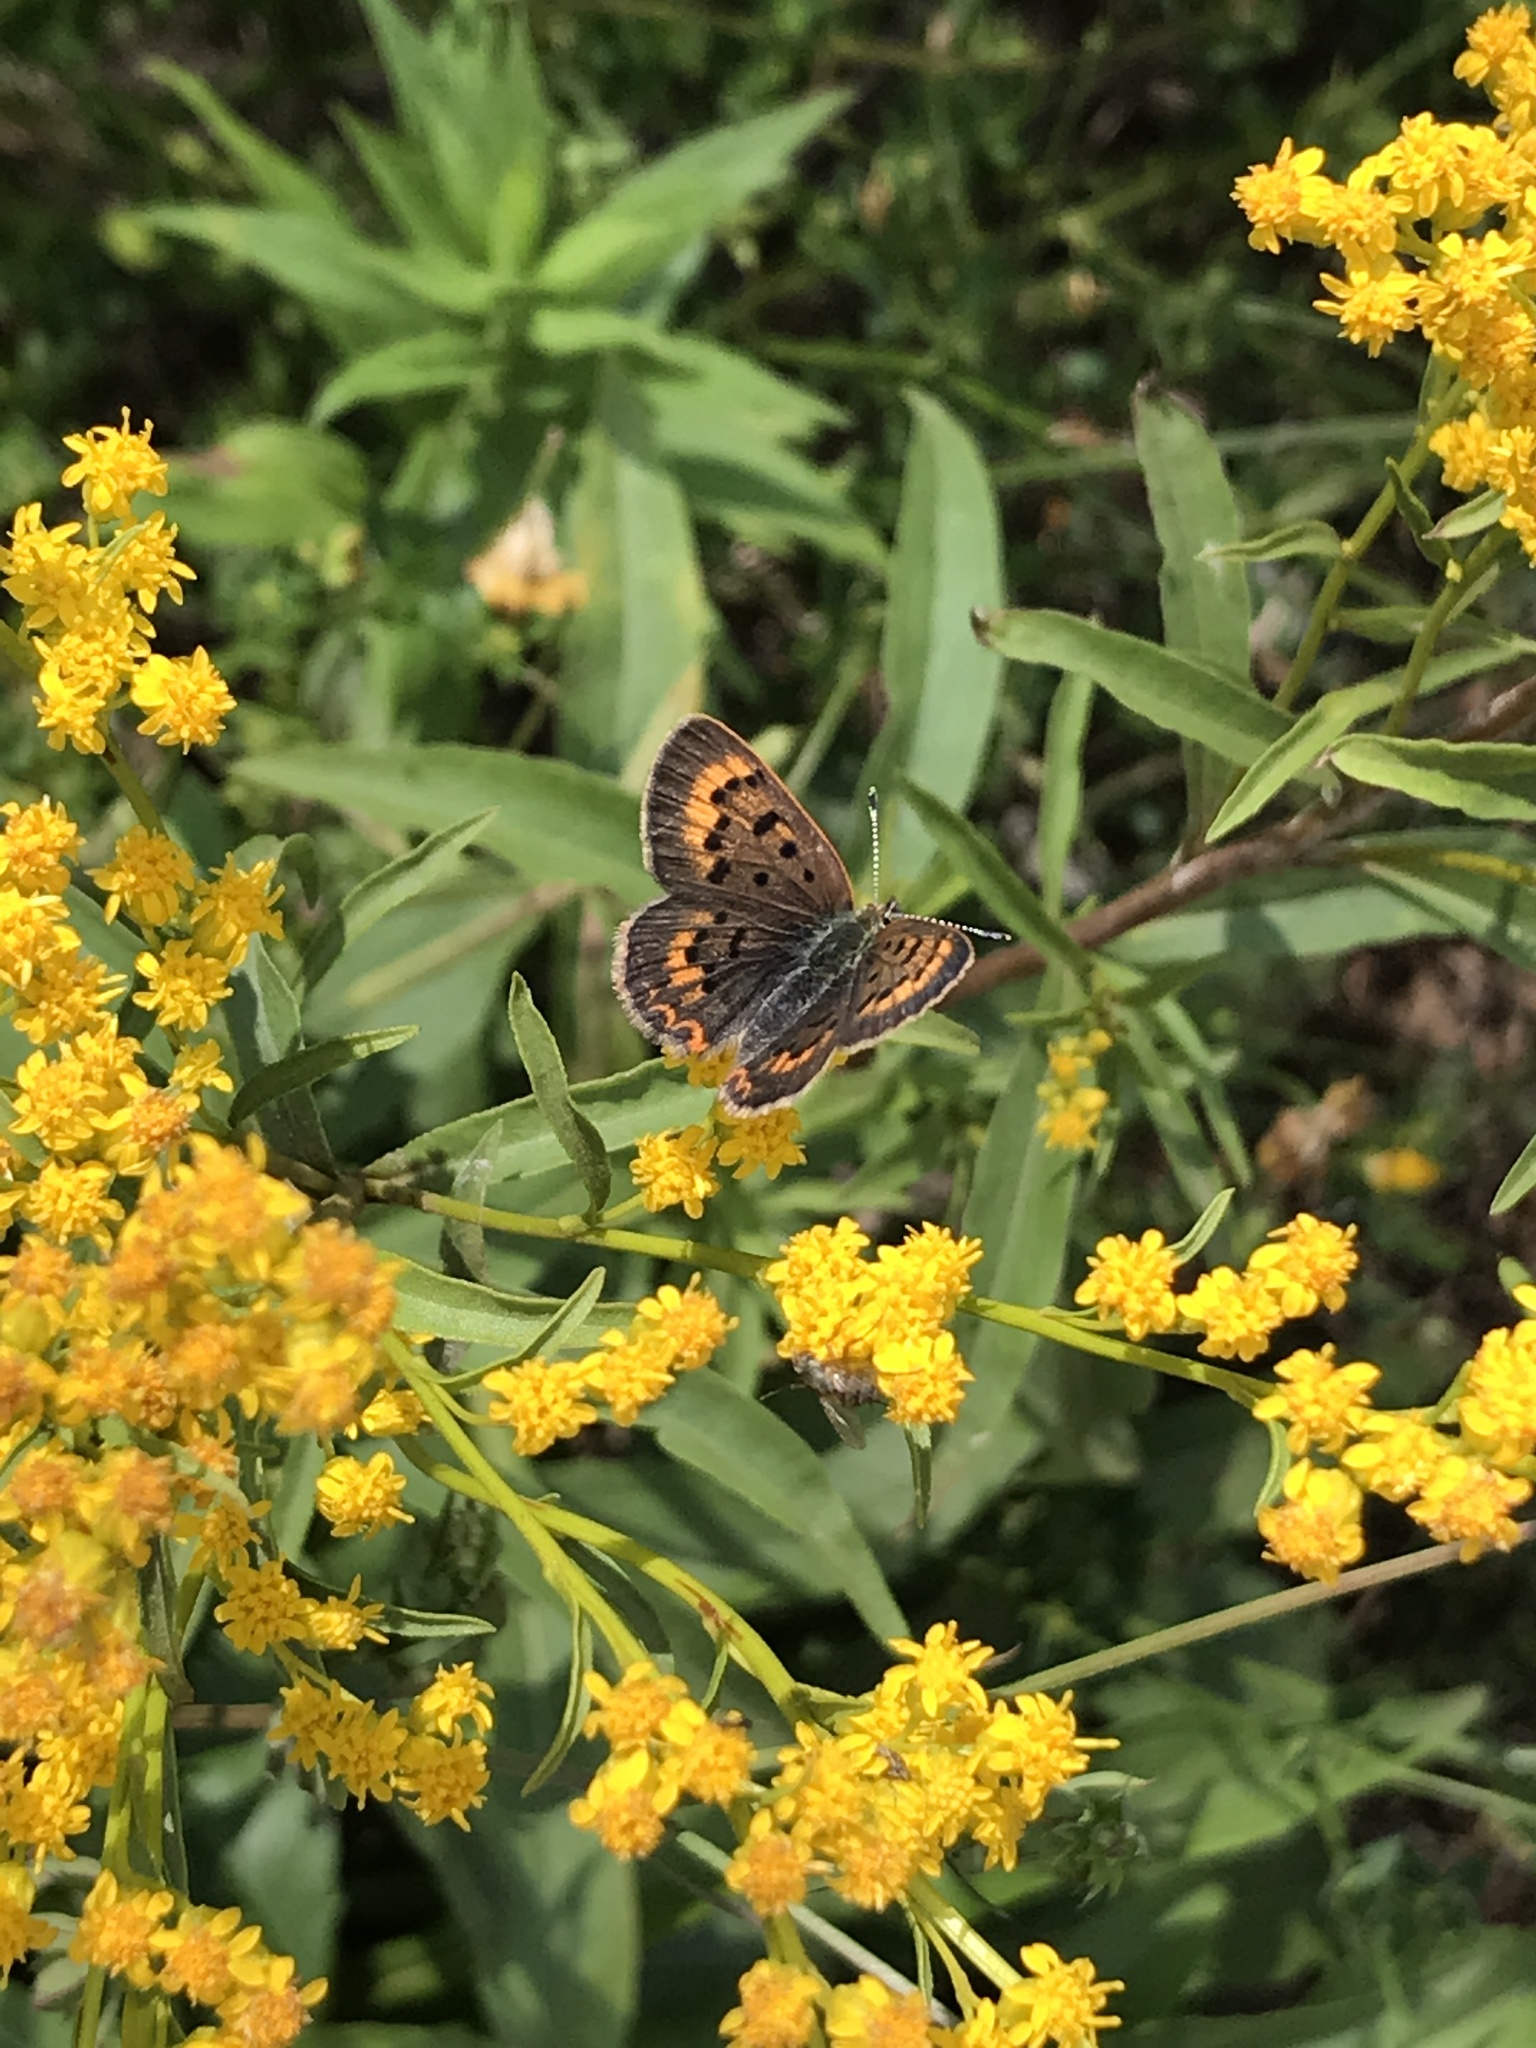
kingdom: Animalia
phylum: Arthropoda
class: Insecta
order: Lepidoptera
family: Lycaenidae
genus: Tharsalea
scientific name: Tharsalea dorcas
